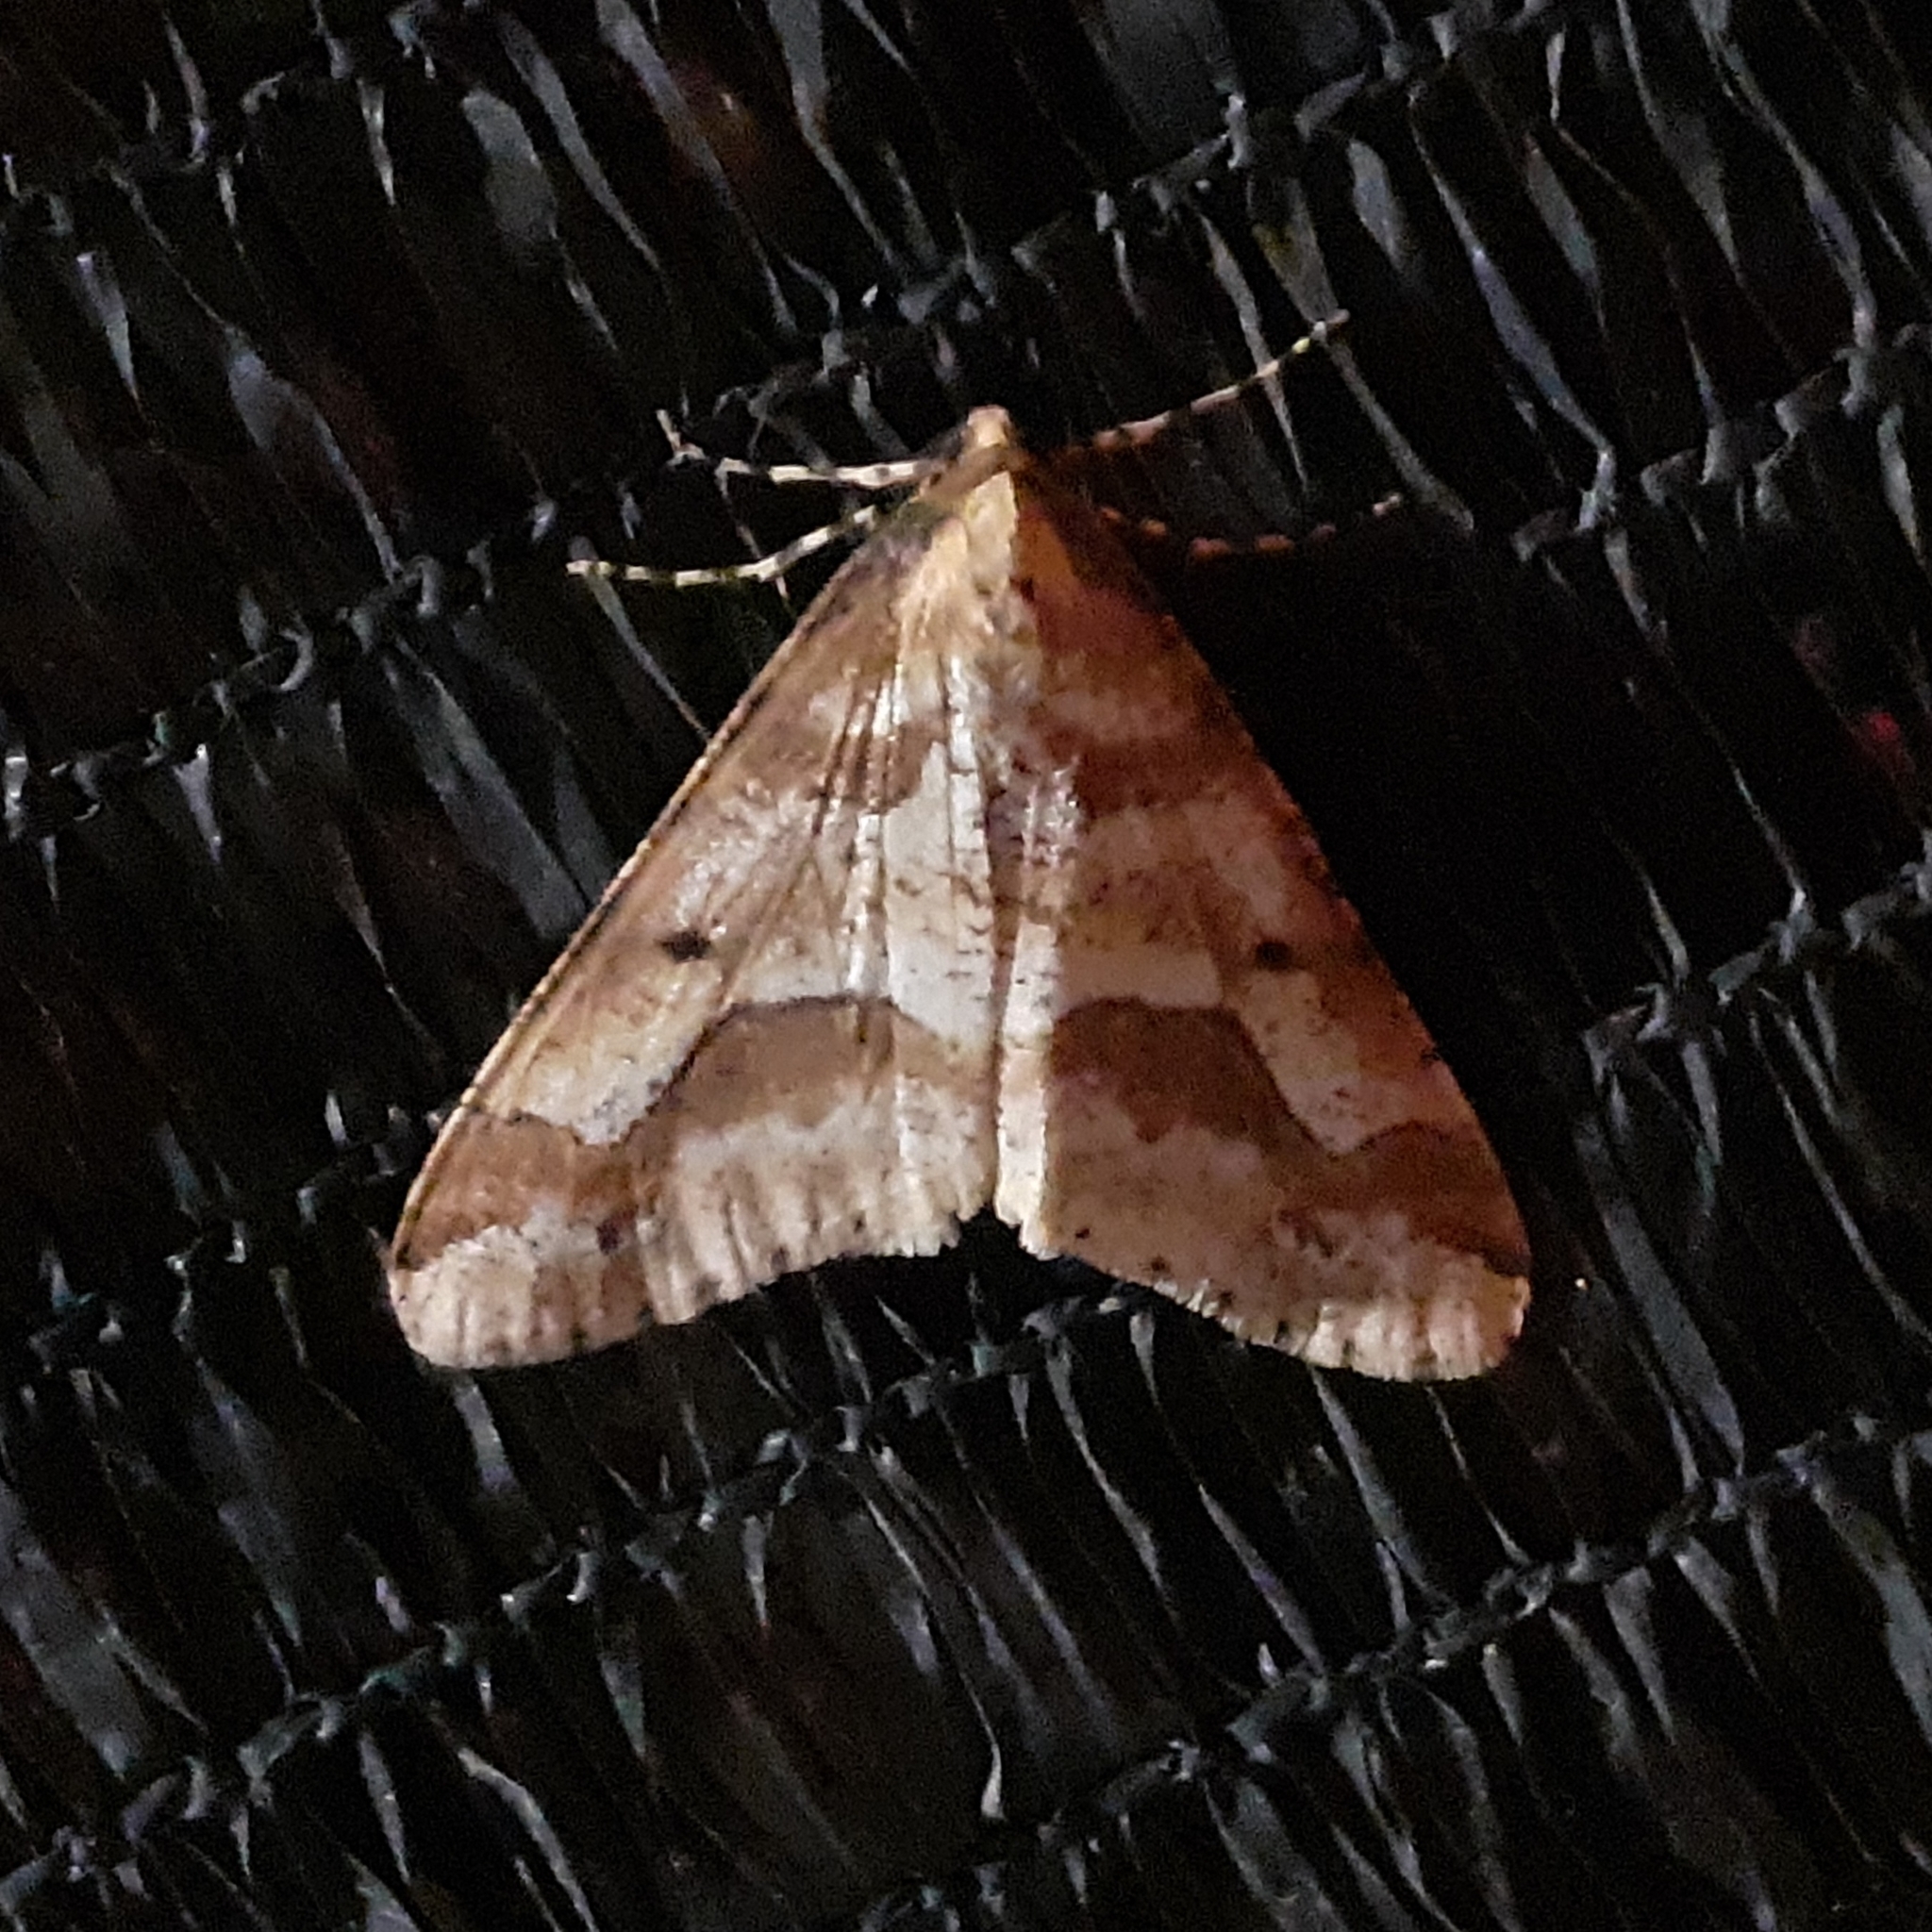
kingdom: Animalia
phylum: Arthropoda
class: Insecta
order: Lepidoptera
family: Geometridae
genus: Erannis
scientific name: Erannis defoliaria
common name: Mottled umber
